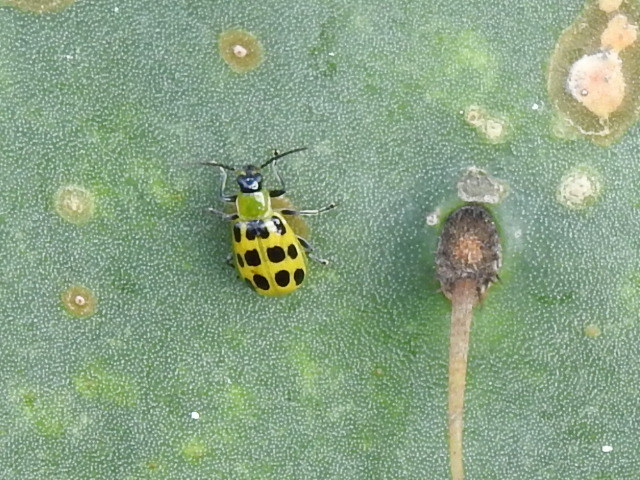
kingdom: Animalia
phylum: Arthropoda
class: Insecta
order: Coleoptera
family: Chrysomelidae
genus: Diabrotica
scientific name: Diabrotica undecimpunctata
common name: Spotted cucumber beetle
